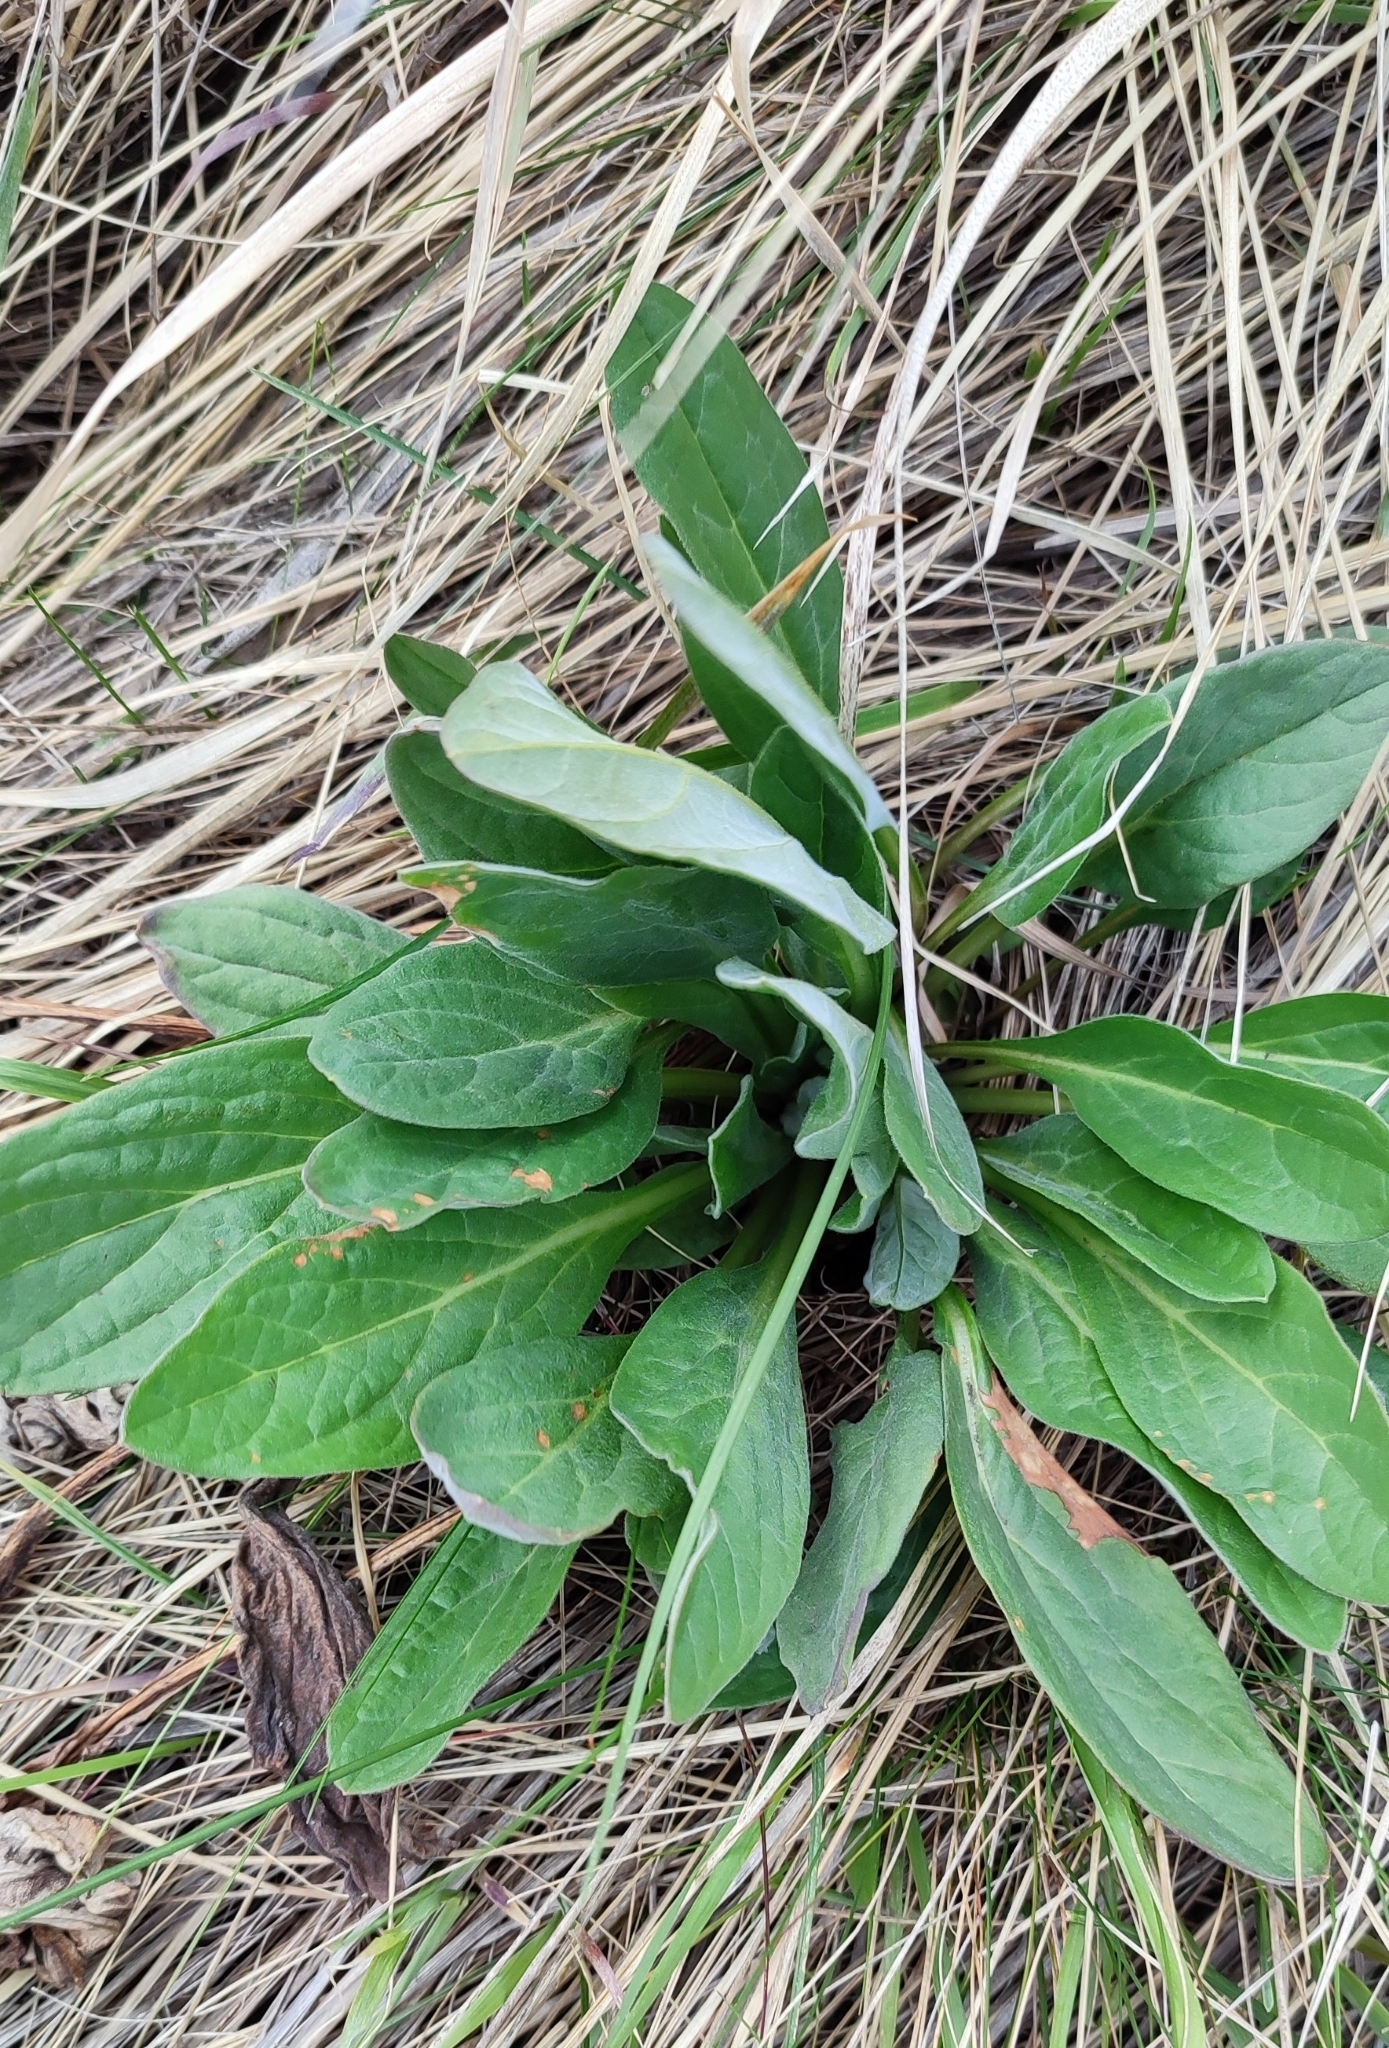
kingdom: Plantae
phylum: Tracheophyta
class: Magnoliopsida
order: Boraginales
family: Boraginaceae
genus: Cynoglossum
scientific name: Cynoglossum officinale
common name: Hound's-tongue
